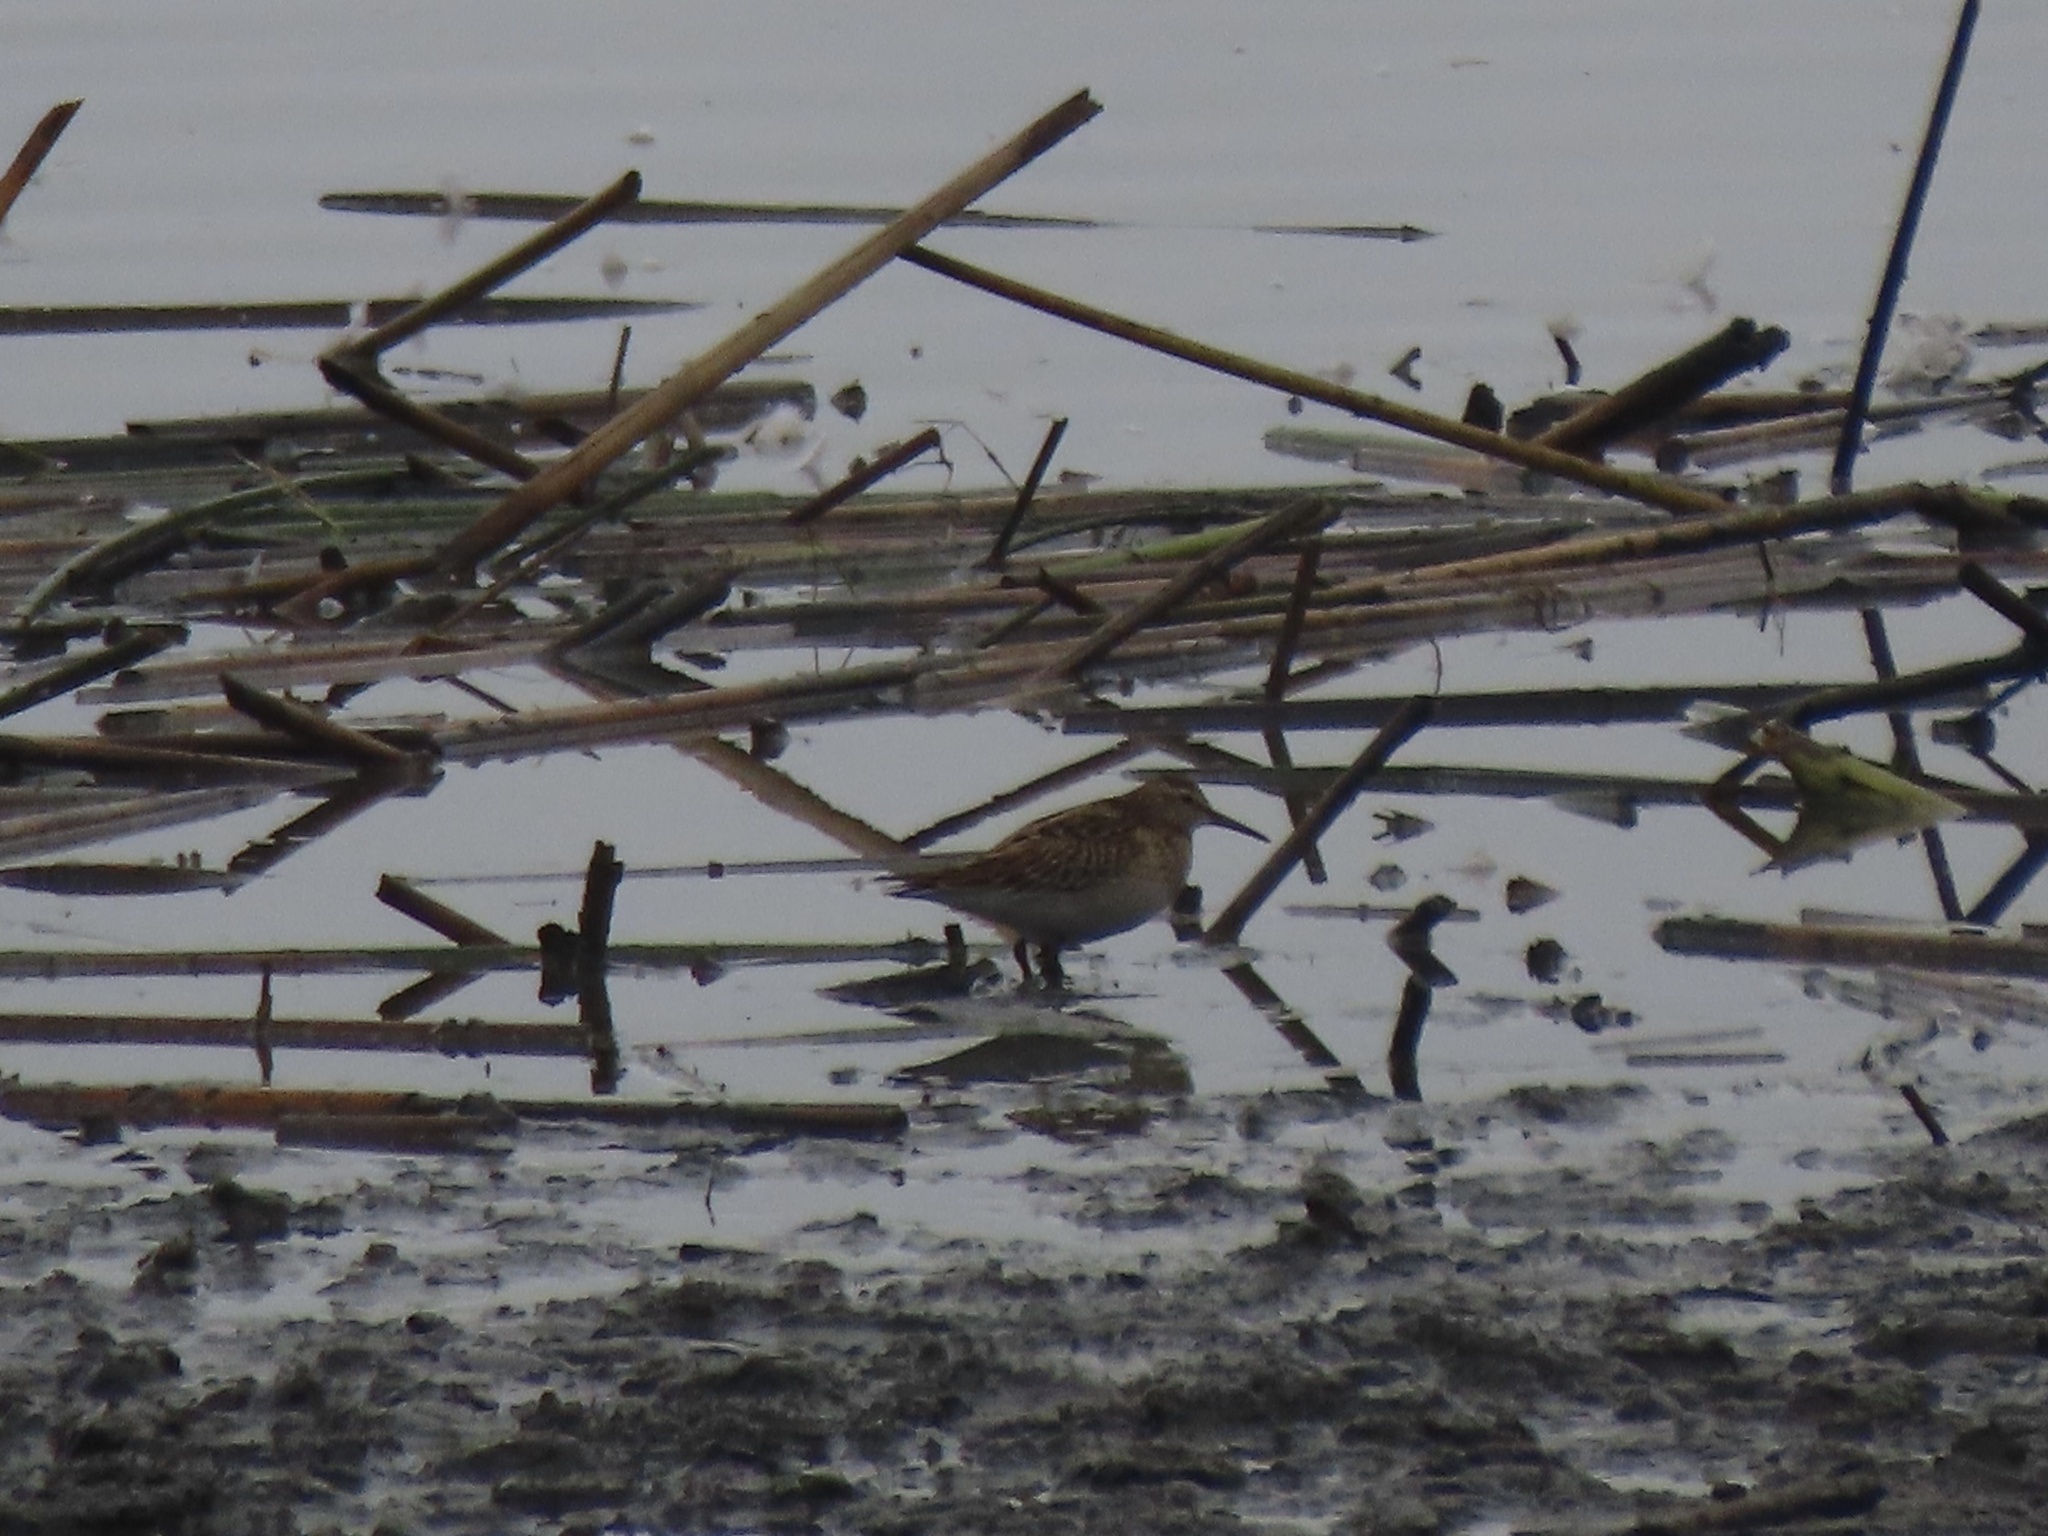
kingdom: Animalia
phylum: Chordata
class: Aves
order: Charadriiformes
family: Scolopacidae
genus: Calidris
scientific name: Calidris melanotos
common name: Pectoral sandpiper
